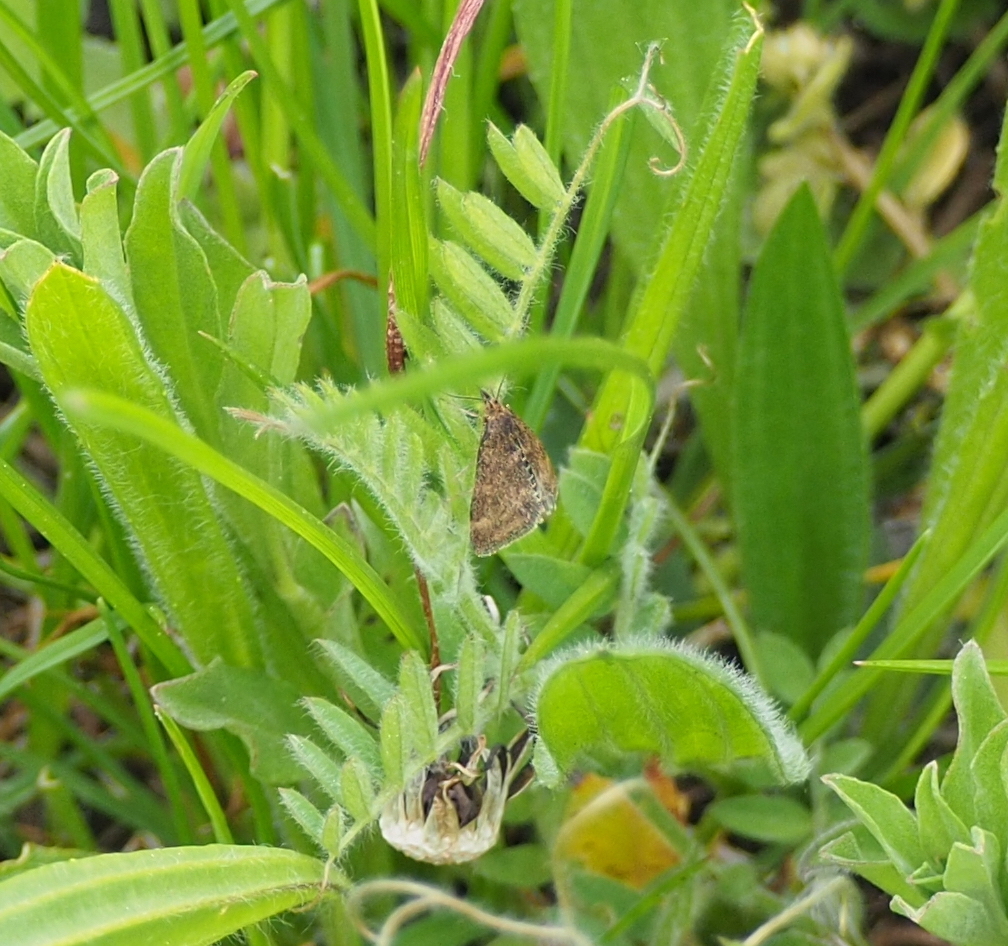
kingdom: Animalia
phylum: Arthropoda
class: Insecta
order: Lepidoptera
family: Crambidae
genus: Pyrausta
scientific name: Pyrausta despicata
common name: Straw-barred pearl
